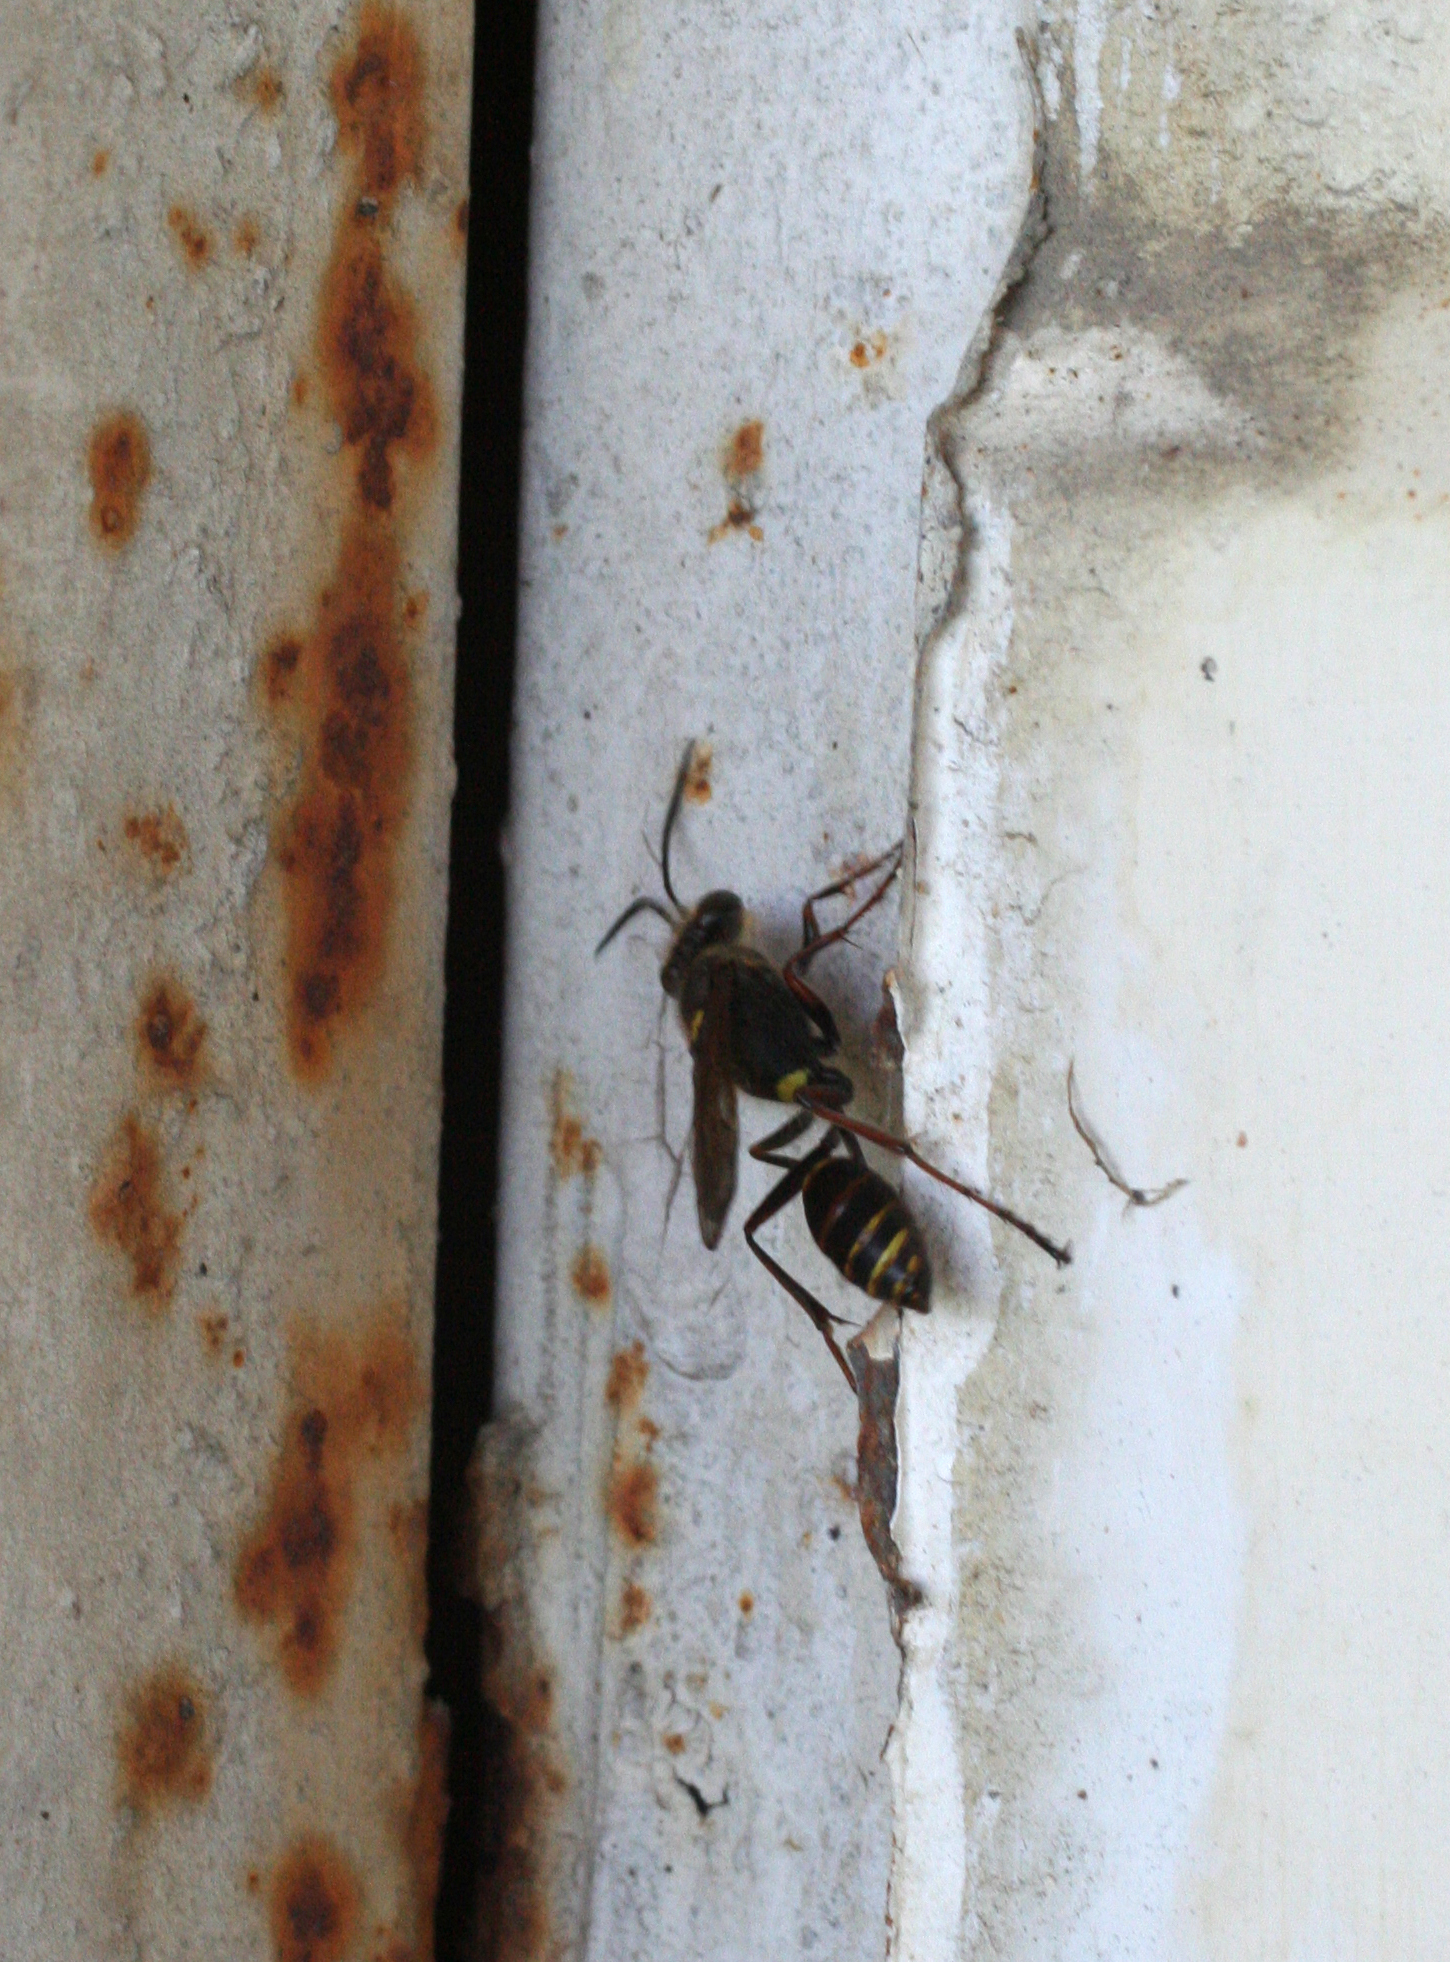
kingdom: Animalia
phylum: Arthropoda
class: Insecta
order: Hymenoptera
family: Sphecidae
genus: Sceliphron
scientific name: Sceliphron curvatum
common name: Pèlopèe
